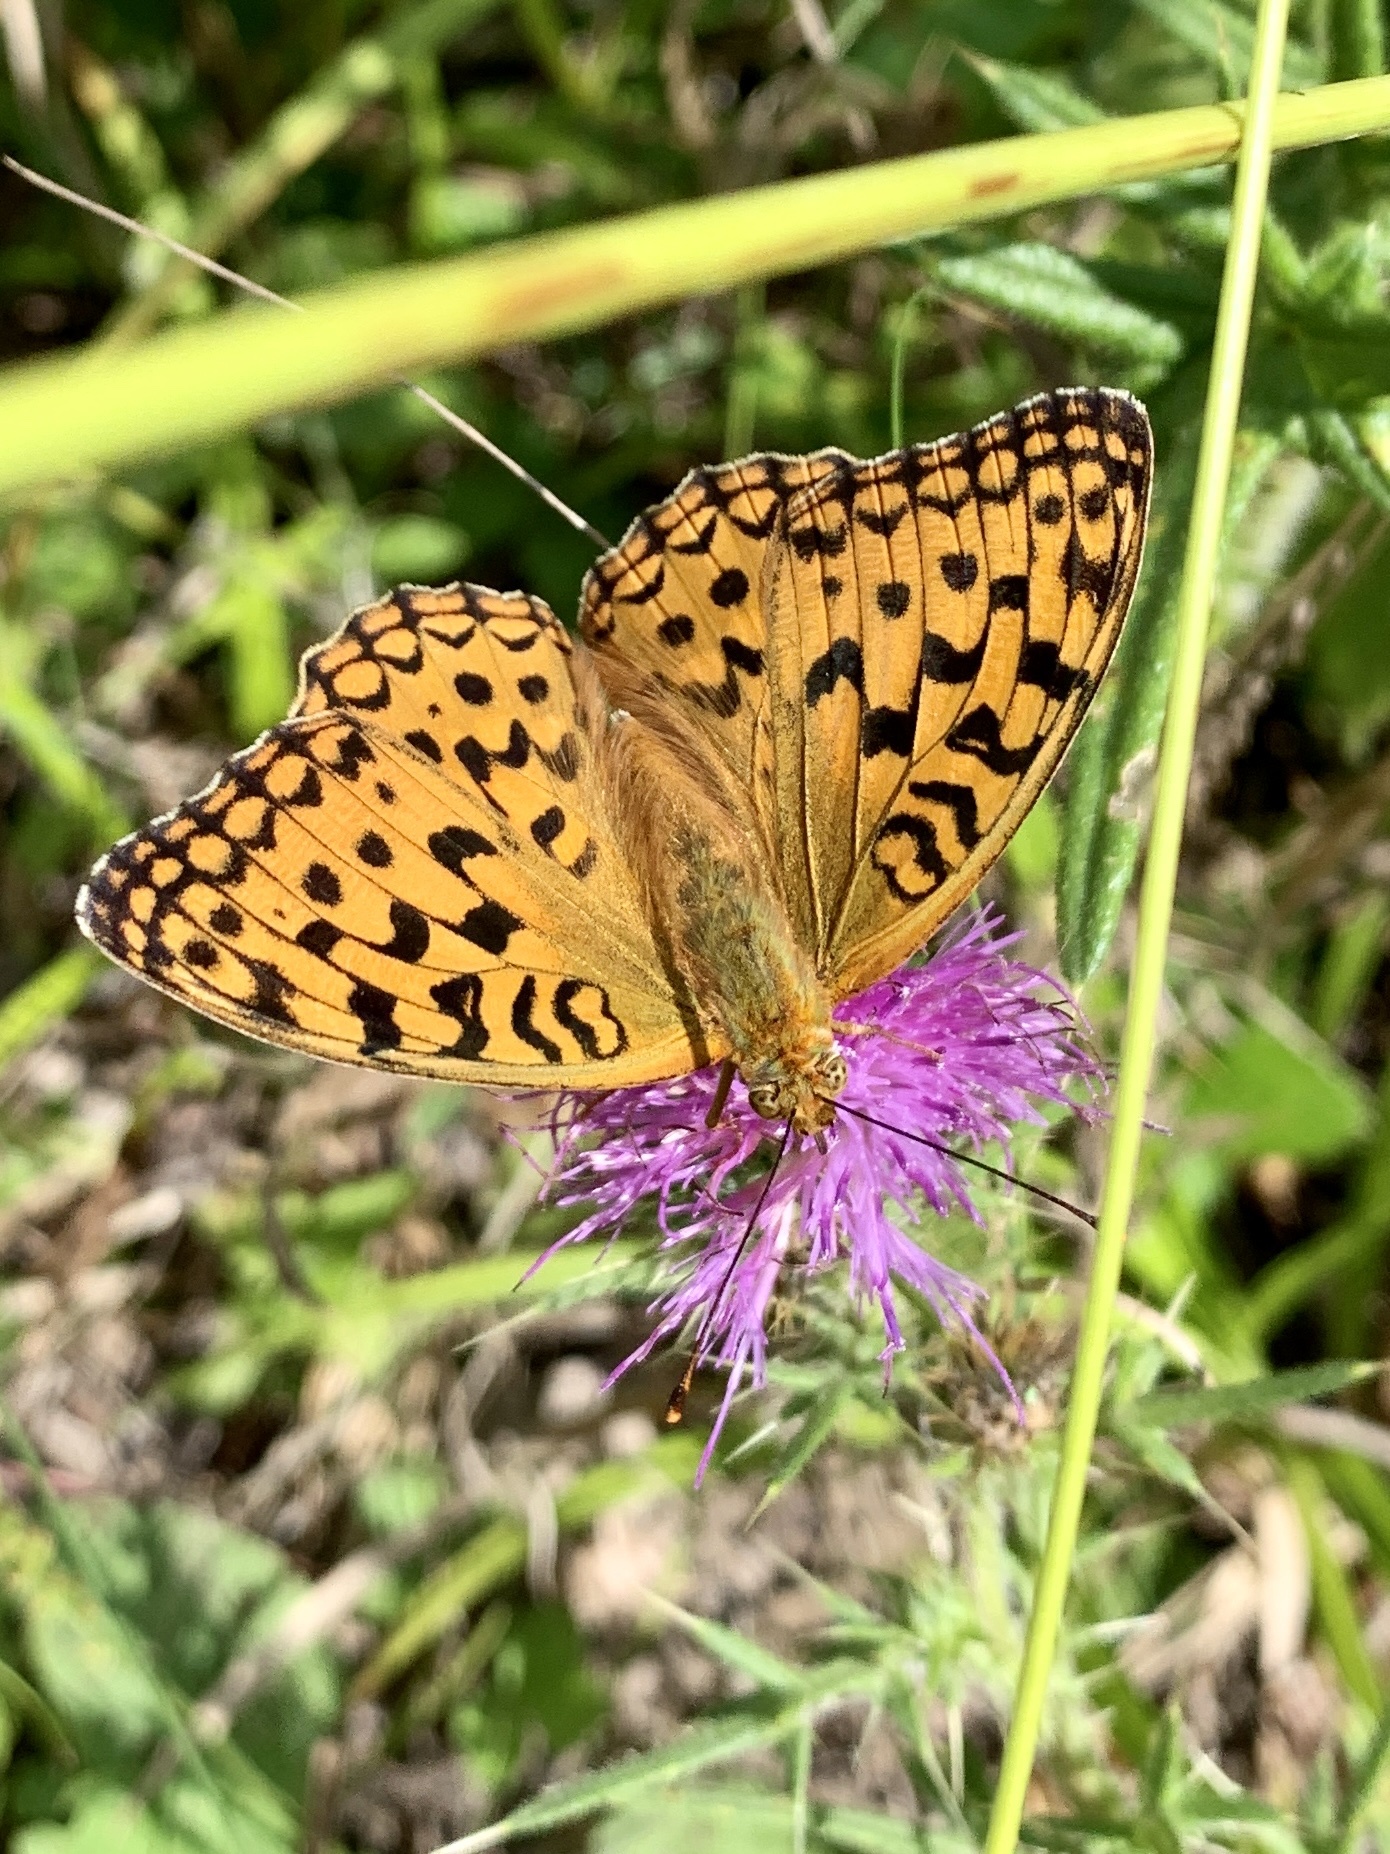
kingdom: Animalia
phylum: Arthropoda
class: Insecta
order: Lepidoptera
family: Nymphalidae
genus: Fabriciana
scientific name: Fabriciana adippe
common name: High brown fritillary
